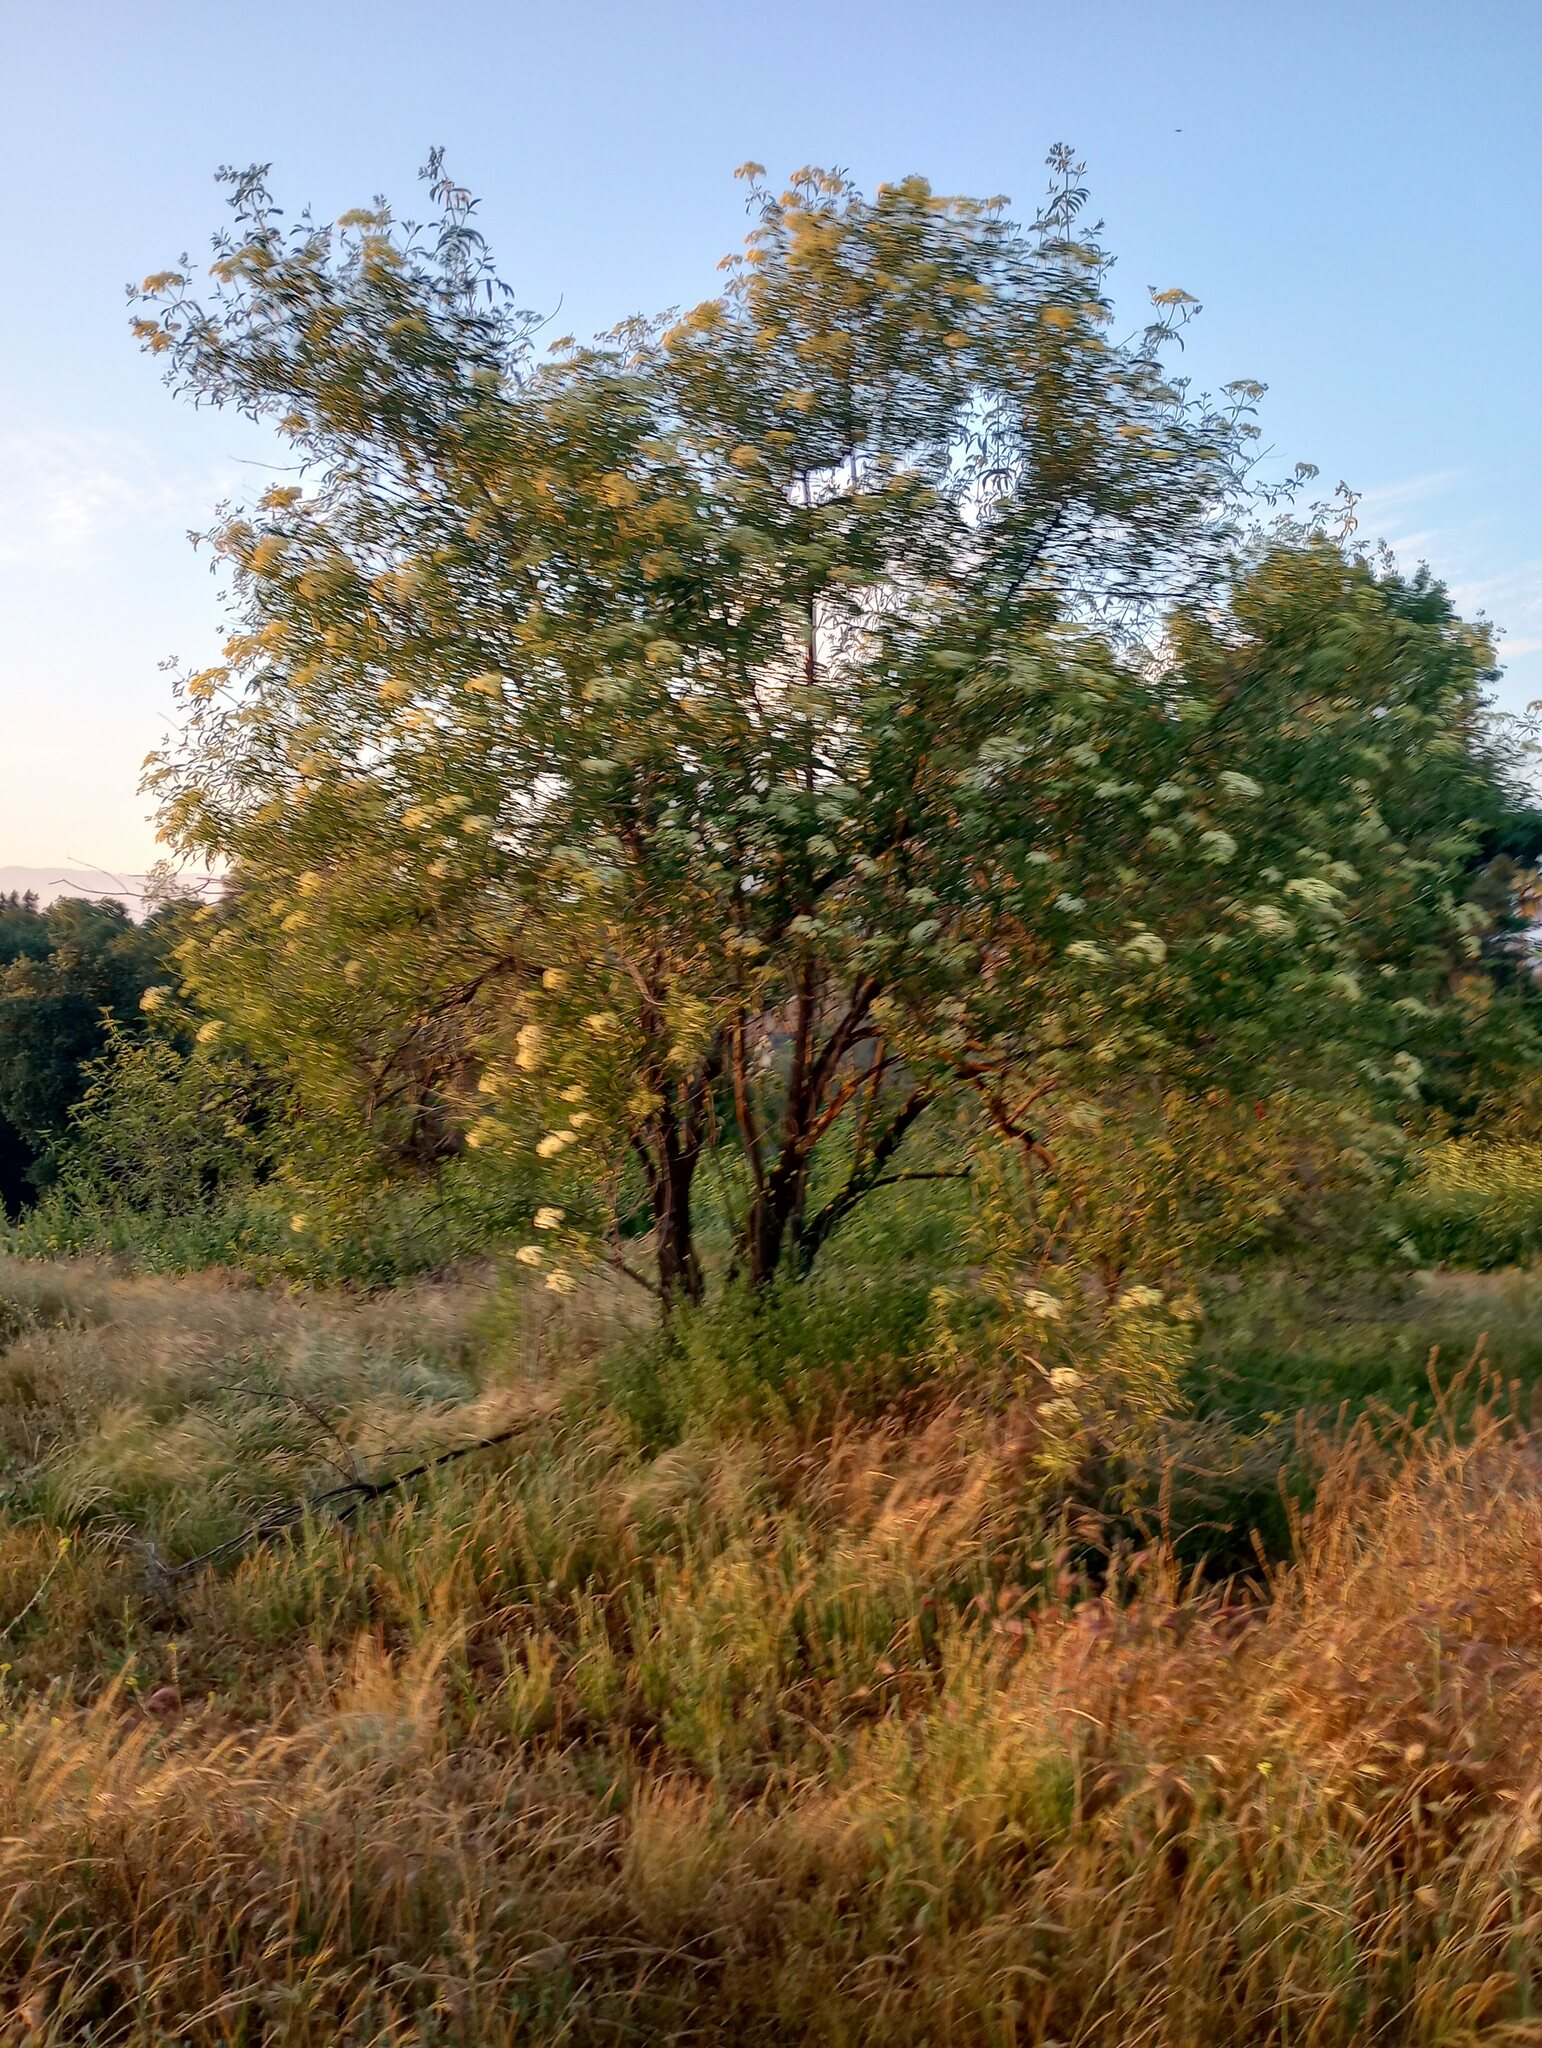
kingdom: Plantae
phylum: Tracheophyta
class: Magnoliopsida
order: Dipsacales
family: Viburnaceae
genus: Sambucus
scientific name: Sambucus cerulea
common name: Blue elder
